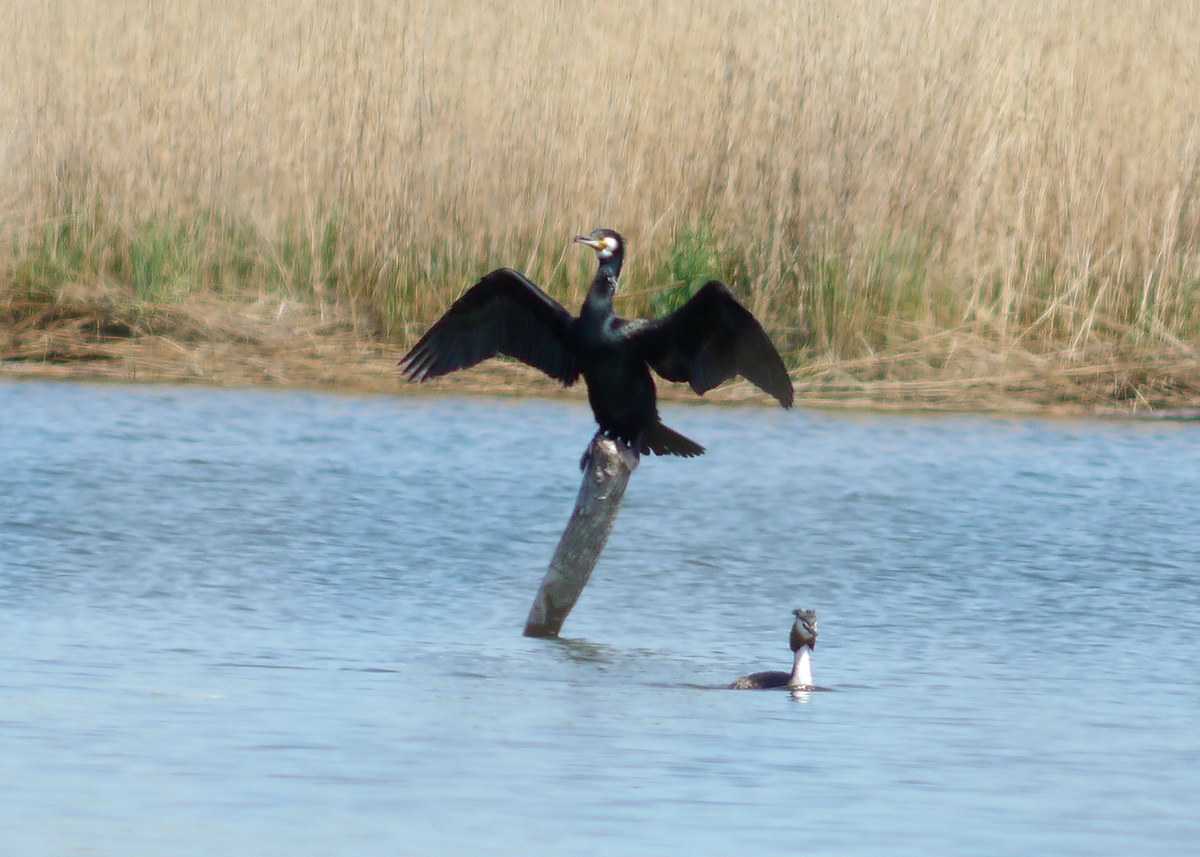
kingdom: Animalia
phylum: Chordata
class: Aves
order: Suliformes
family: Phalacrocoracidae
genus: Phalacrocorax
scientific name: Phalacrocorax carbo
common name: Great cormorant
